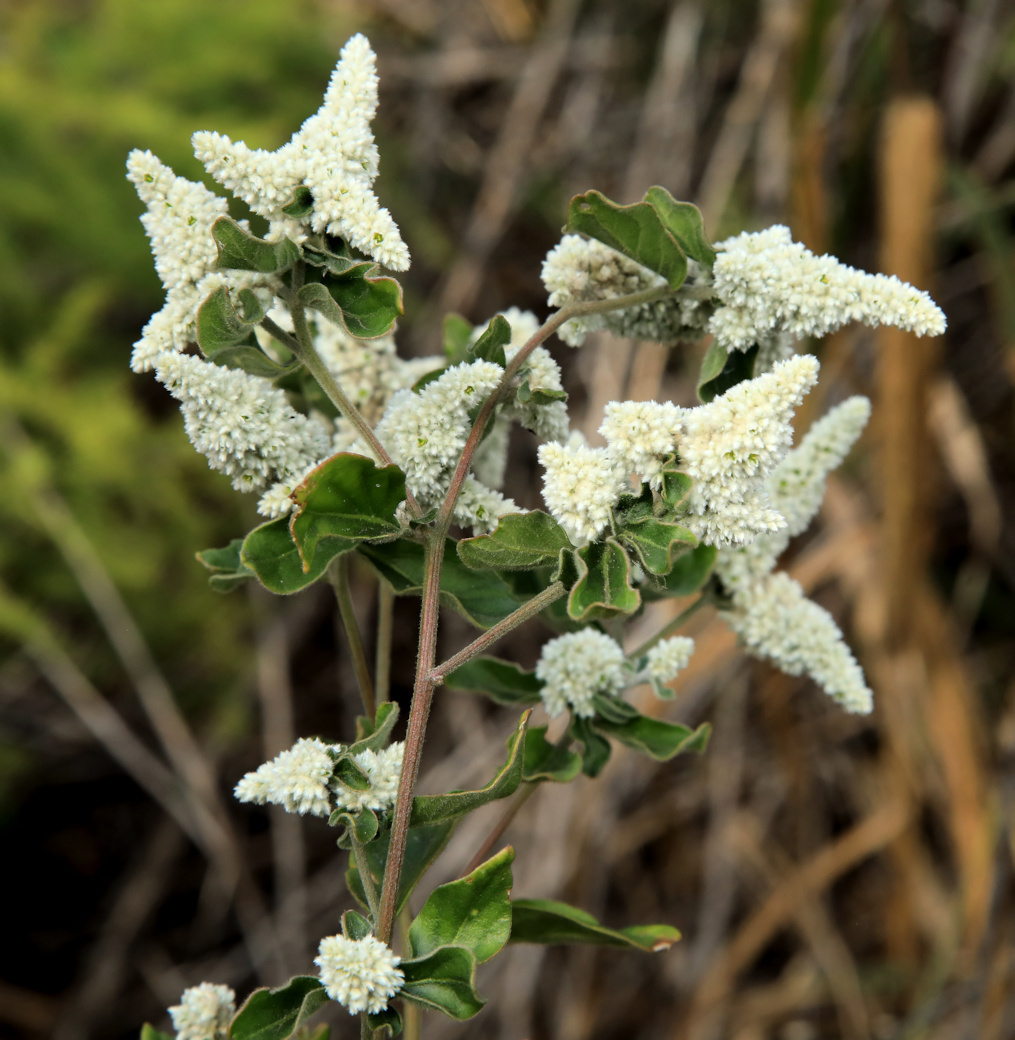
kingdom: Plantae
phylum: Tracheophyta
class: Magnoliopsida
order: Caryophyllales
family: Amaranthaceae
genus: Ouret
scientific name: Ouret leucura
